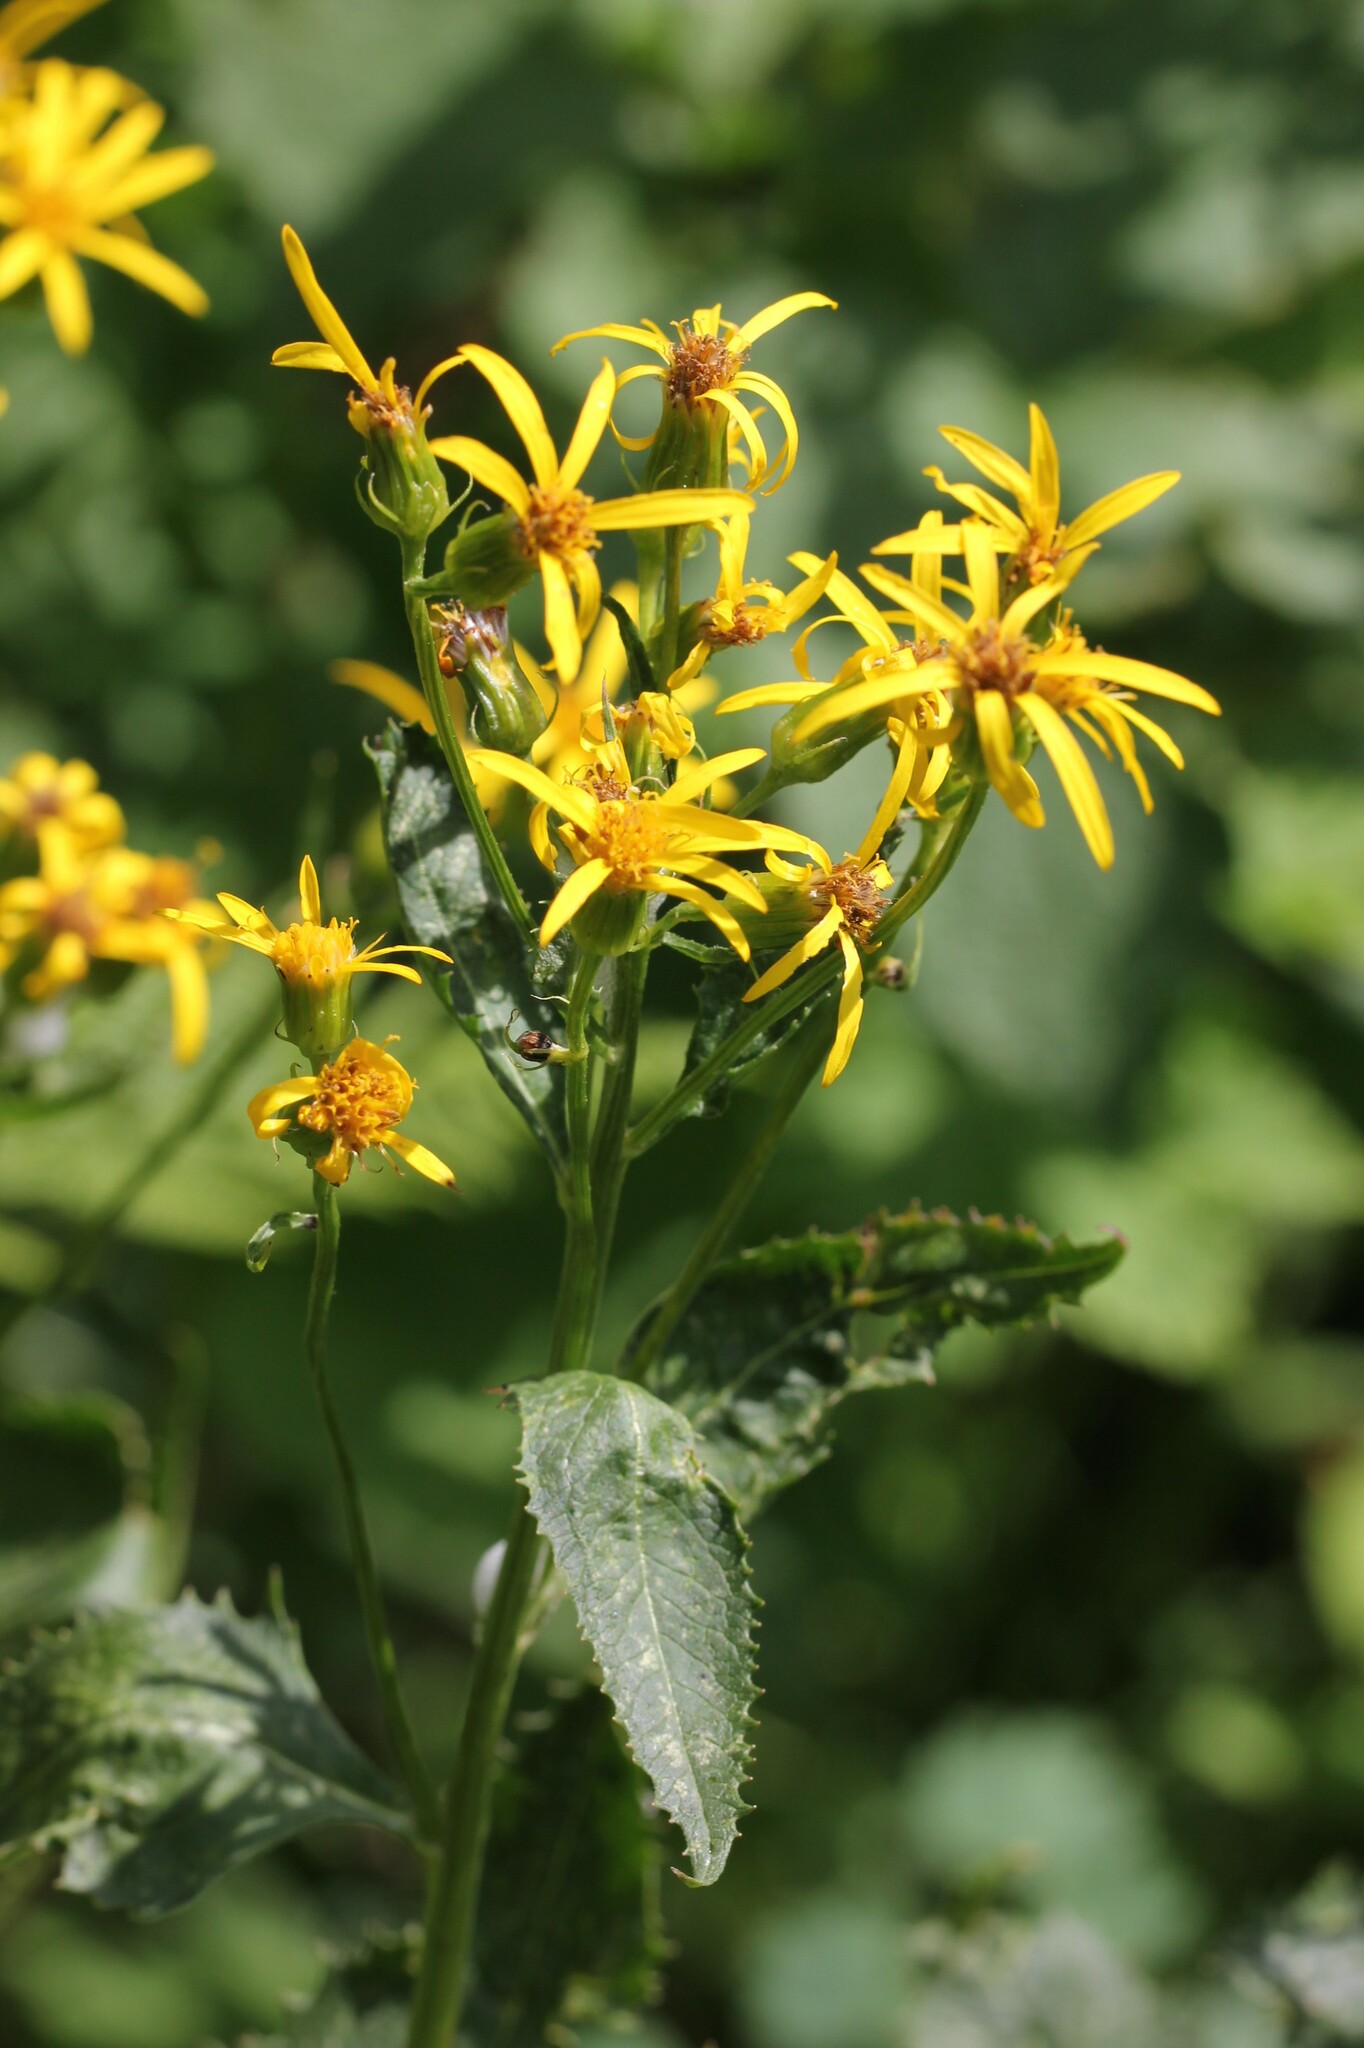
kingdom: Plantae
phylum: Tracheophyta
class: Magnoliopsida
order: Asterales
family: Asteraceae
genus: Senecio
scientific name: Senecio triangularis
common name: Arrowleaf butterweed
